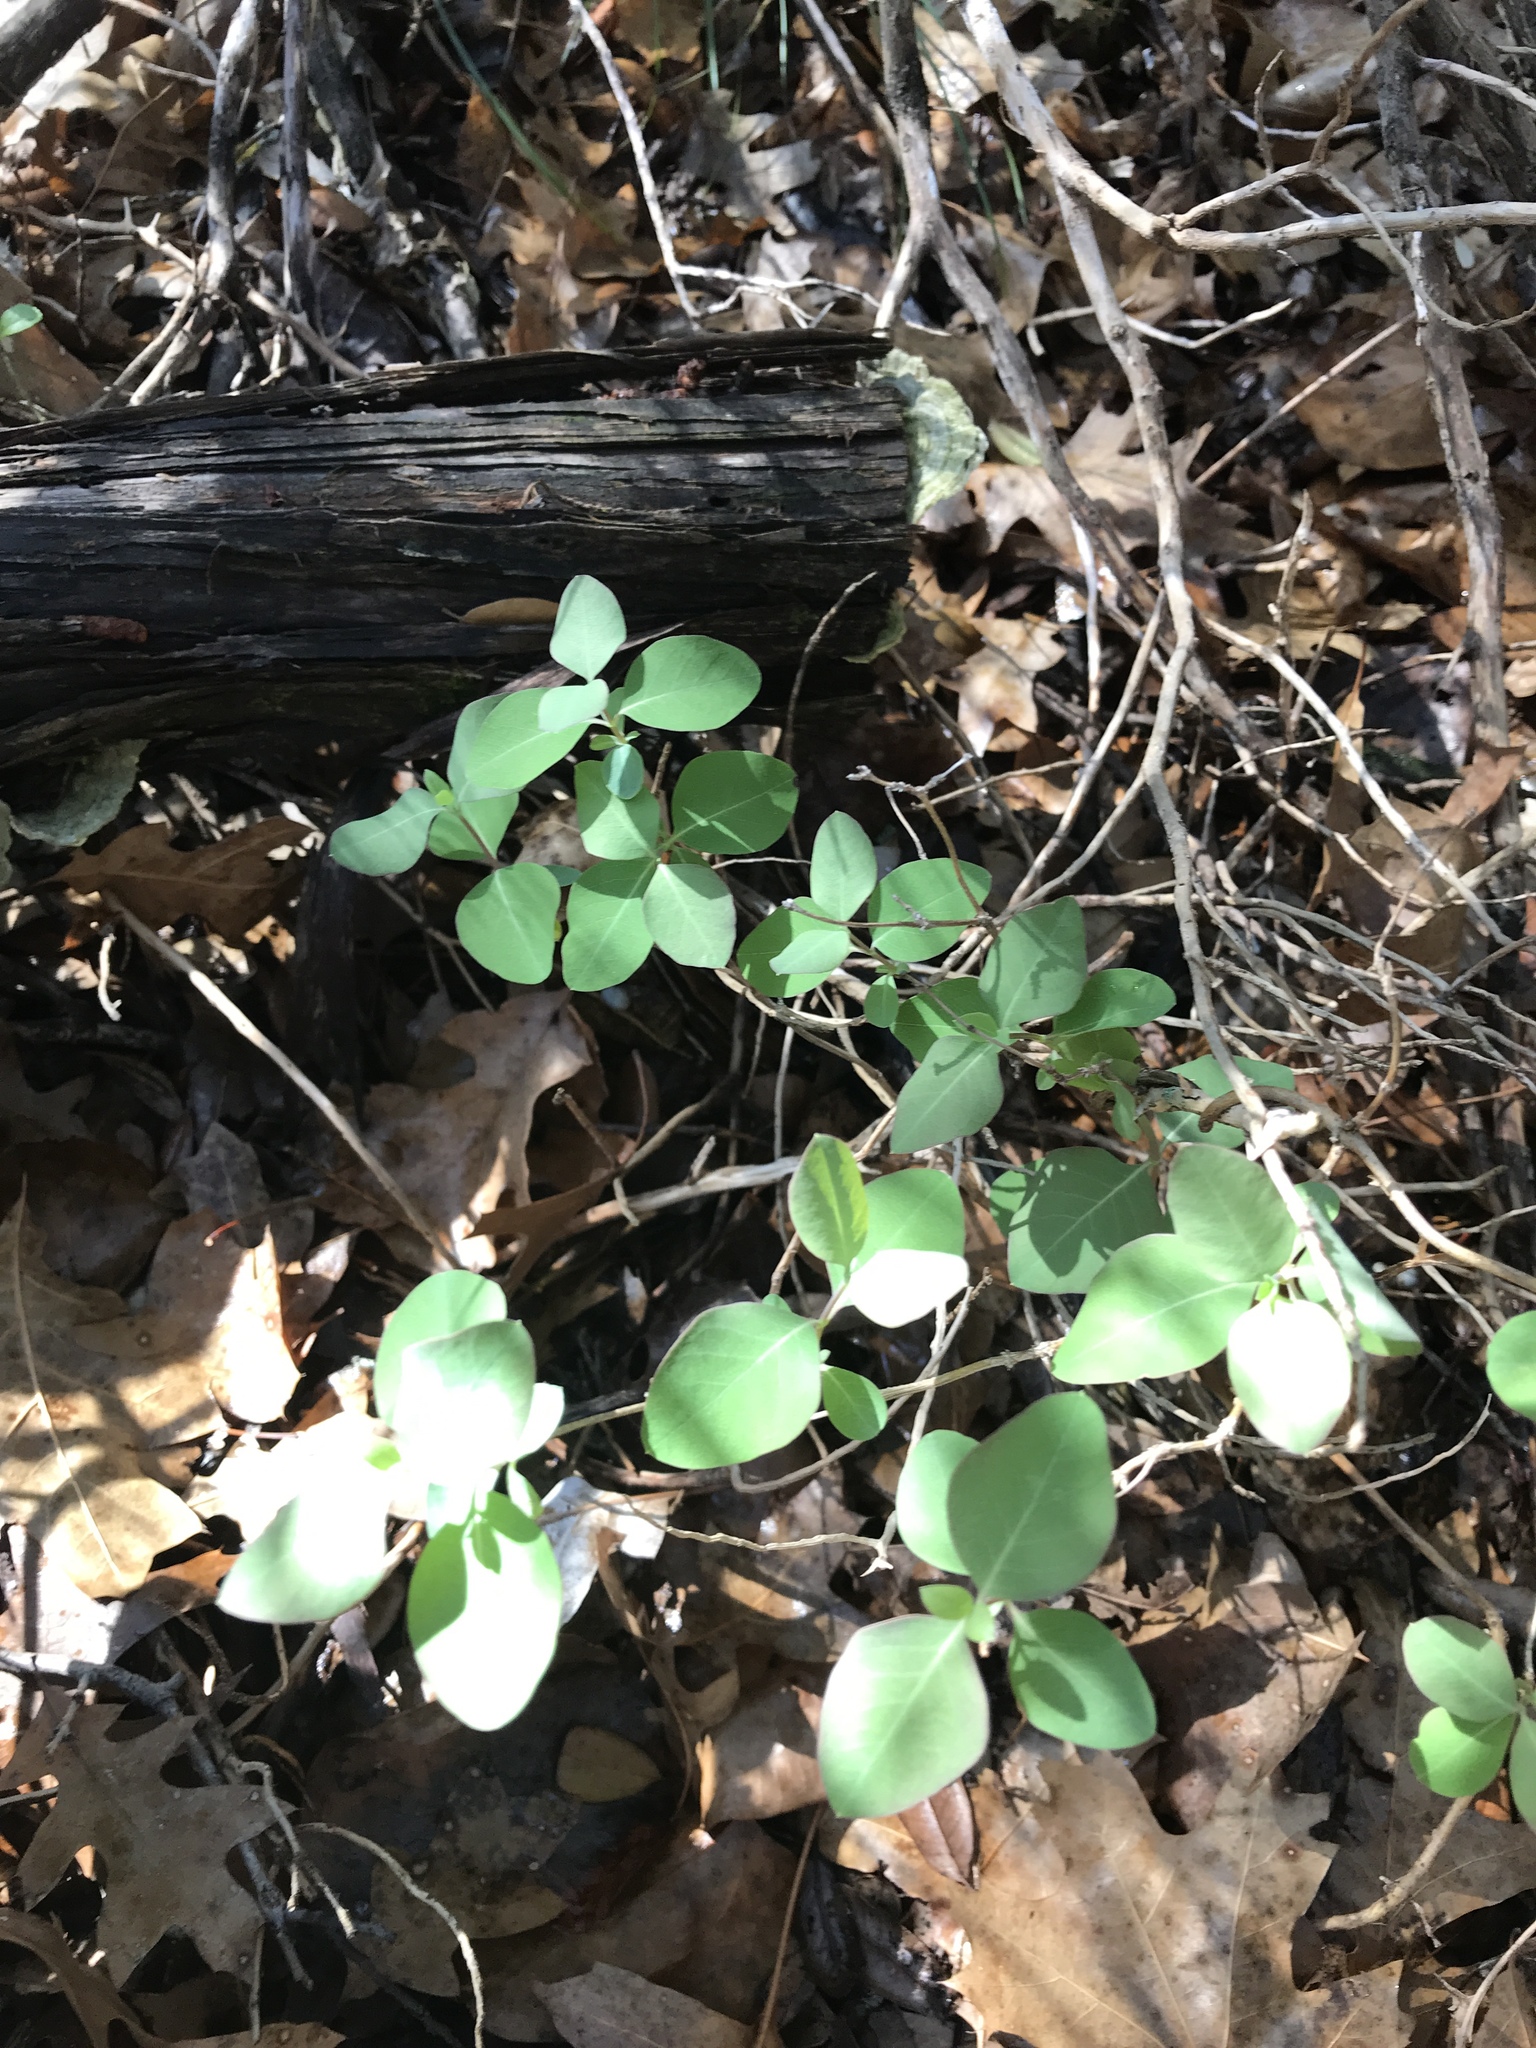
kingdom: Plantae
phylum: Tracheophyta
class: Magnoliopsida
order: Dipsacales
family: Caprifoliaceae
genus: Lonicera
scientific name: Lonicera albiflora
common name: White honeysuckle
